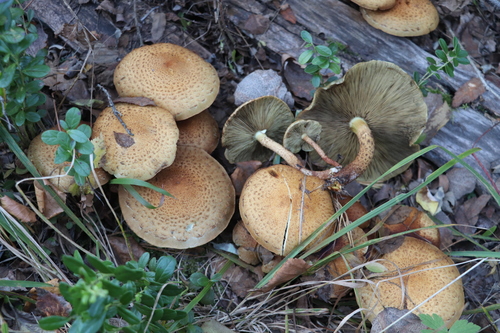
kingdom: Fungi
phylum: Basidiomycota
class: Agaricomycetes
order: Agaricales
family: Strophariaceae
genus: Pholiota
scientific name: Pholiota squarrosa
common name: Shaggy pholiota
